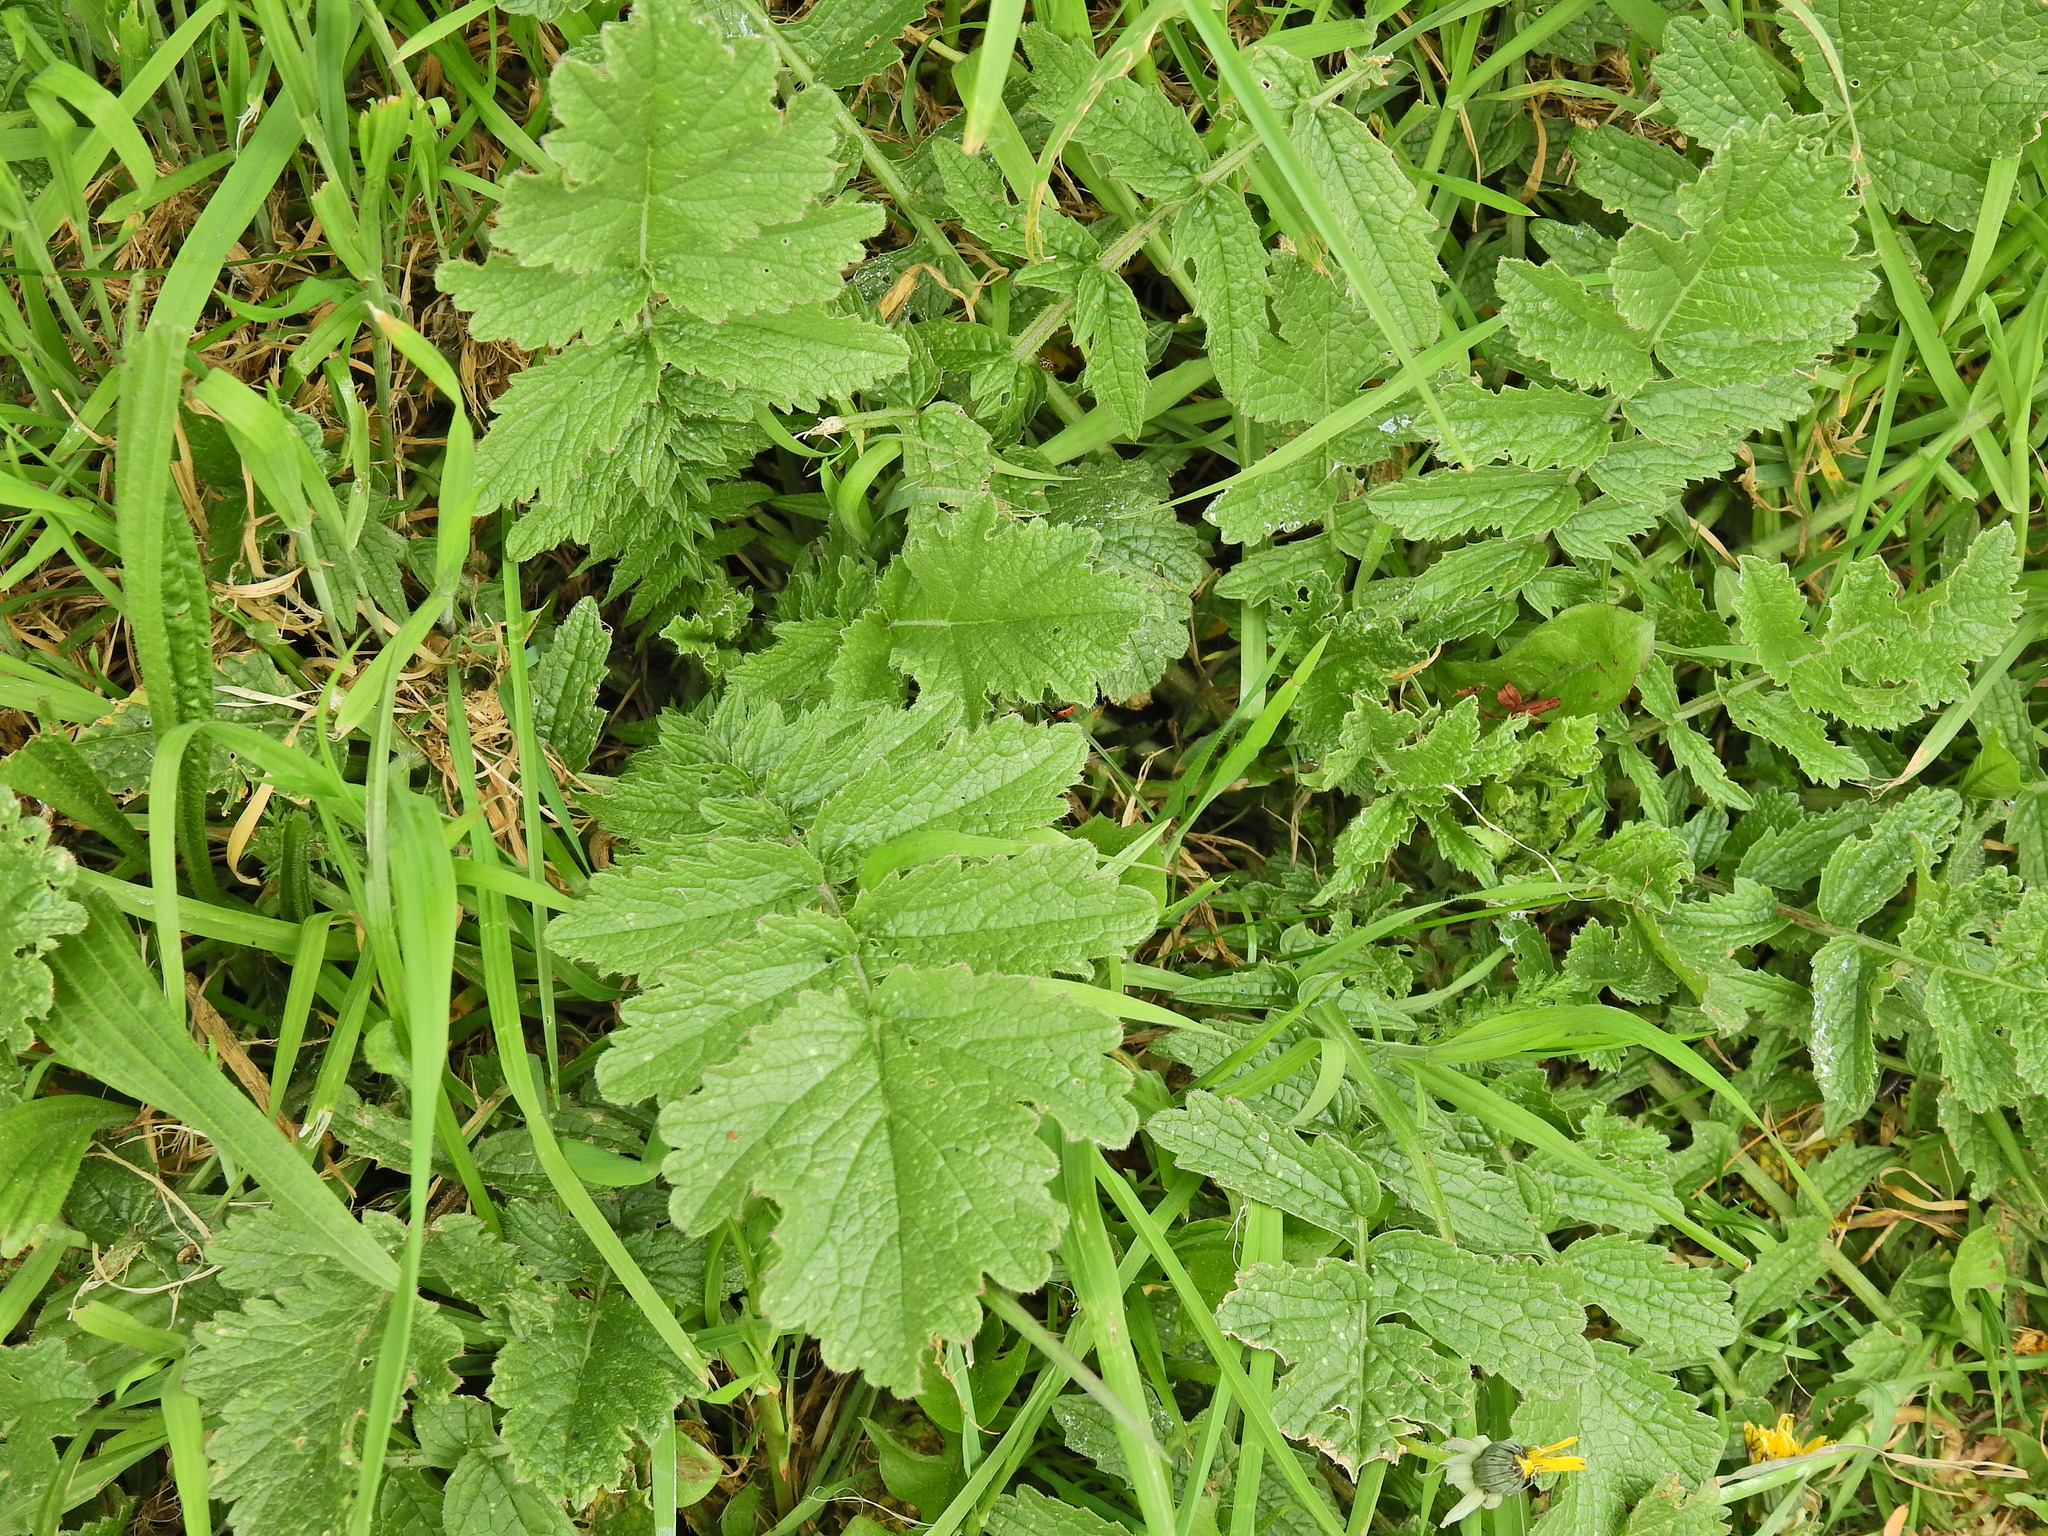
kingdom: Plantae
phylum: Tracheophyta
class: Magnoliopsida
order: Brassicales
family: Brassicaceae
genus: Raphanus
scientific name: Raphanus raphanistrum
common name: Wild radish
